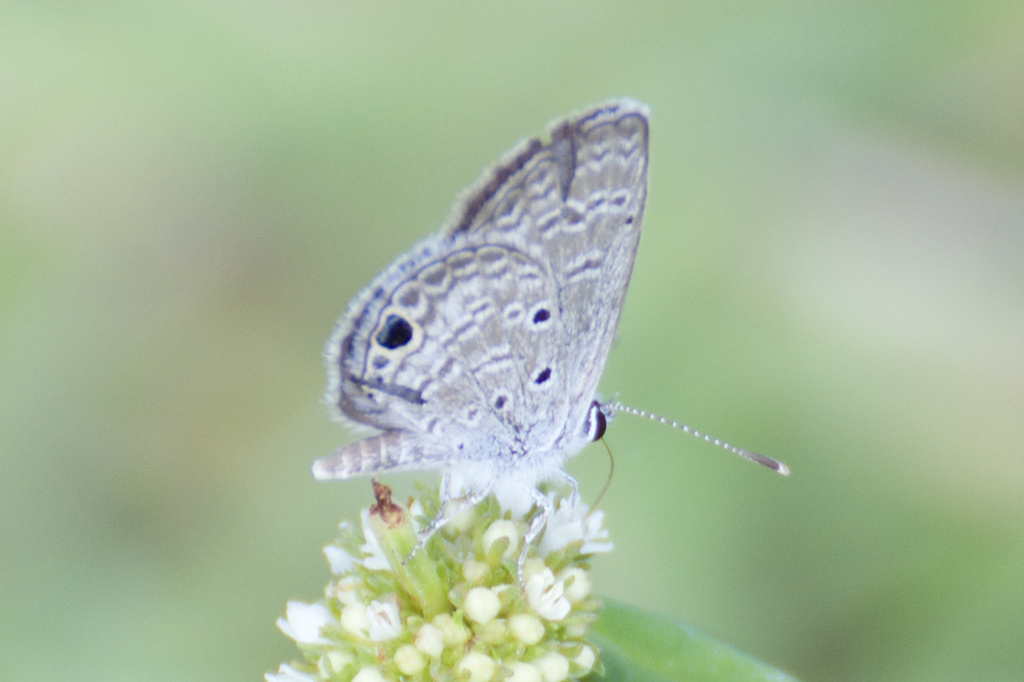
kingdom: Animalia
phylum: Arthropoda
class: Insecta
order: Lepidoptera
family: Lycaenidae
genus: Hemiargus
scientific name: Hemiargus ceraunus
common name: Ceraunus blue
